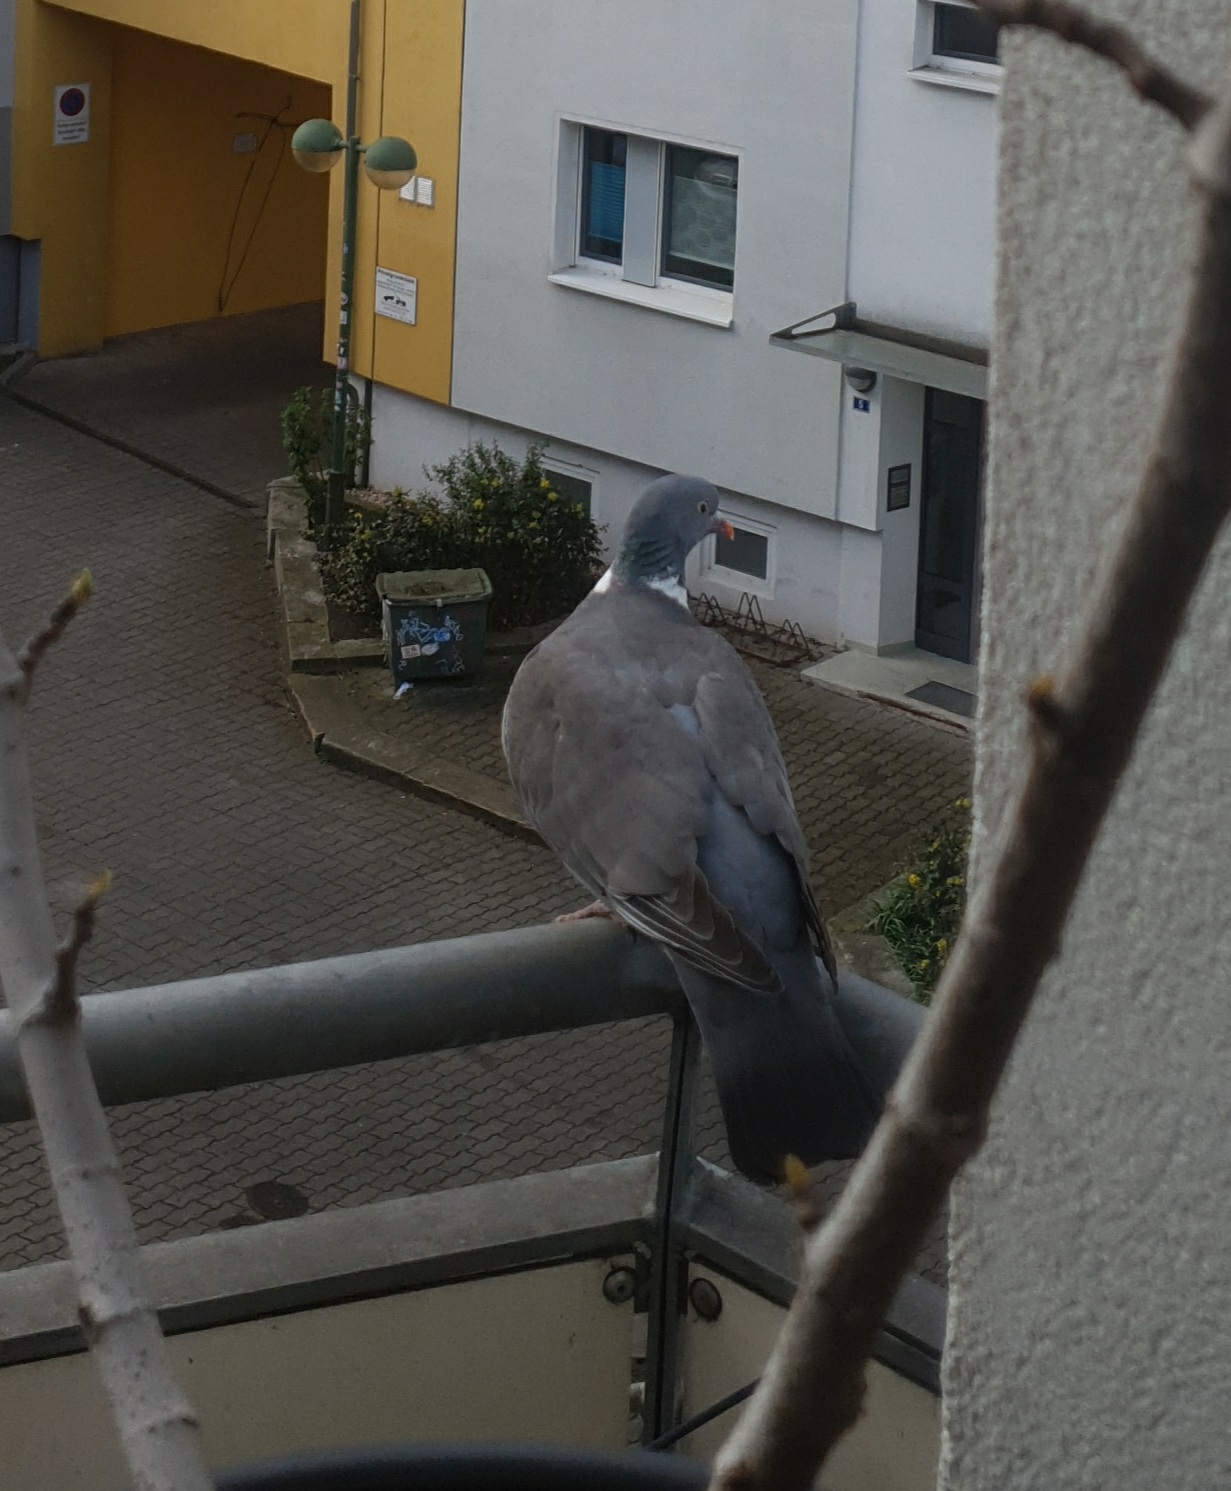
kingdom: Animalia
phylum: Chordata
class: Aves
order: Columbiformes
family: Columbidae
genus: Columba
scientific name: Columba palumbus
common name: Common wood pigeon
